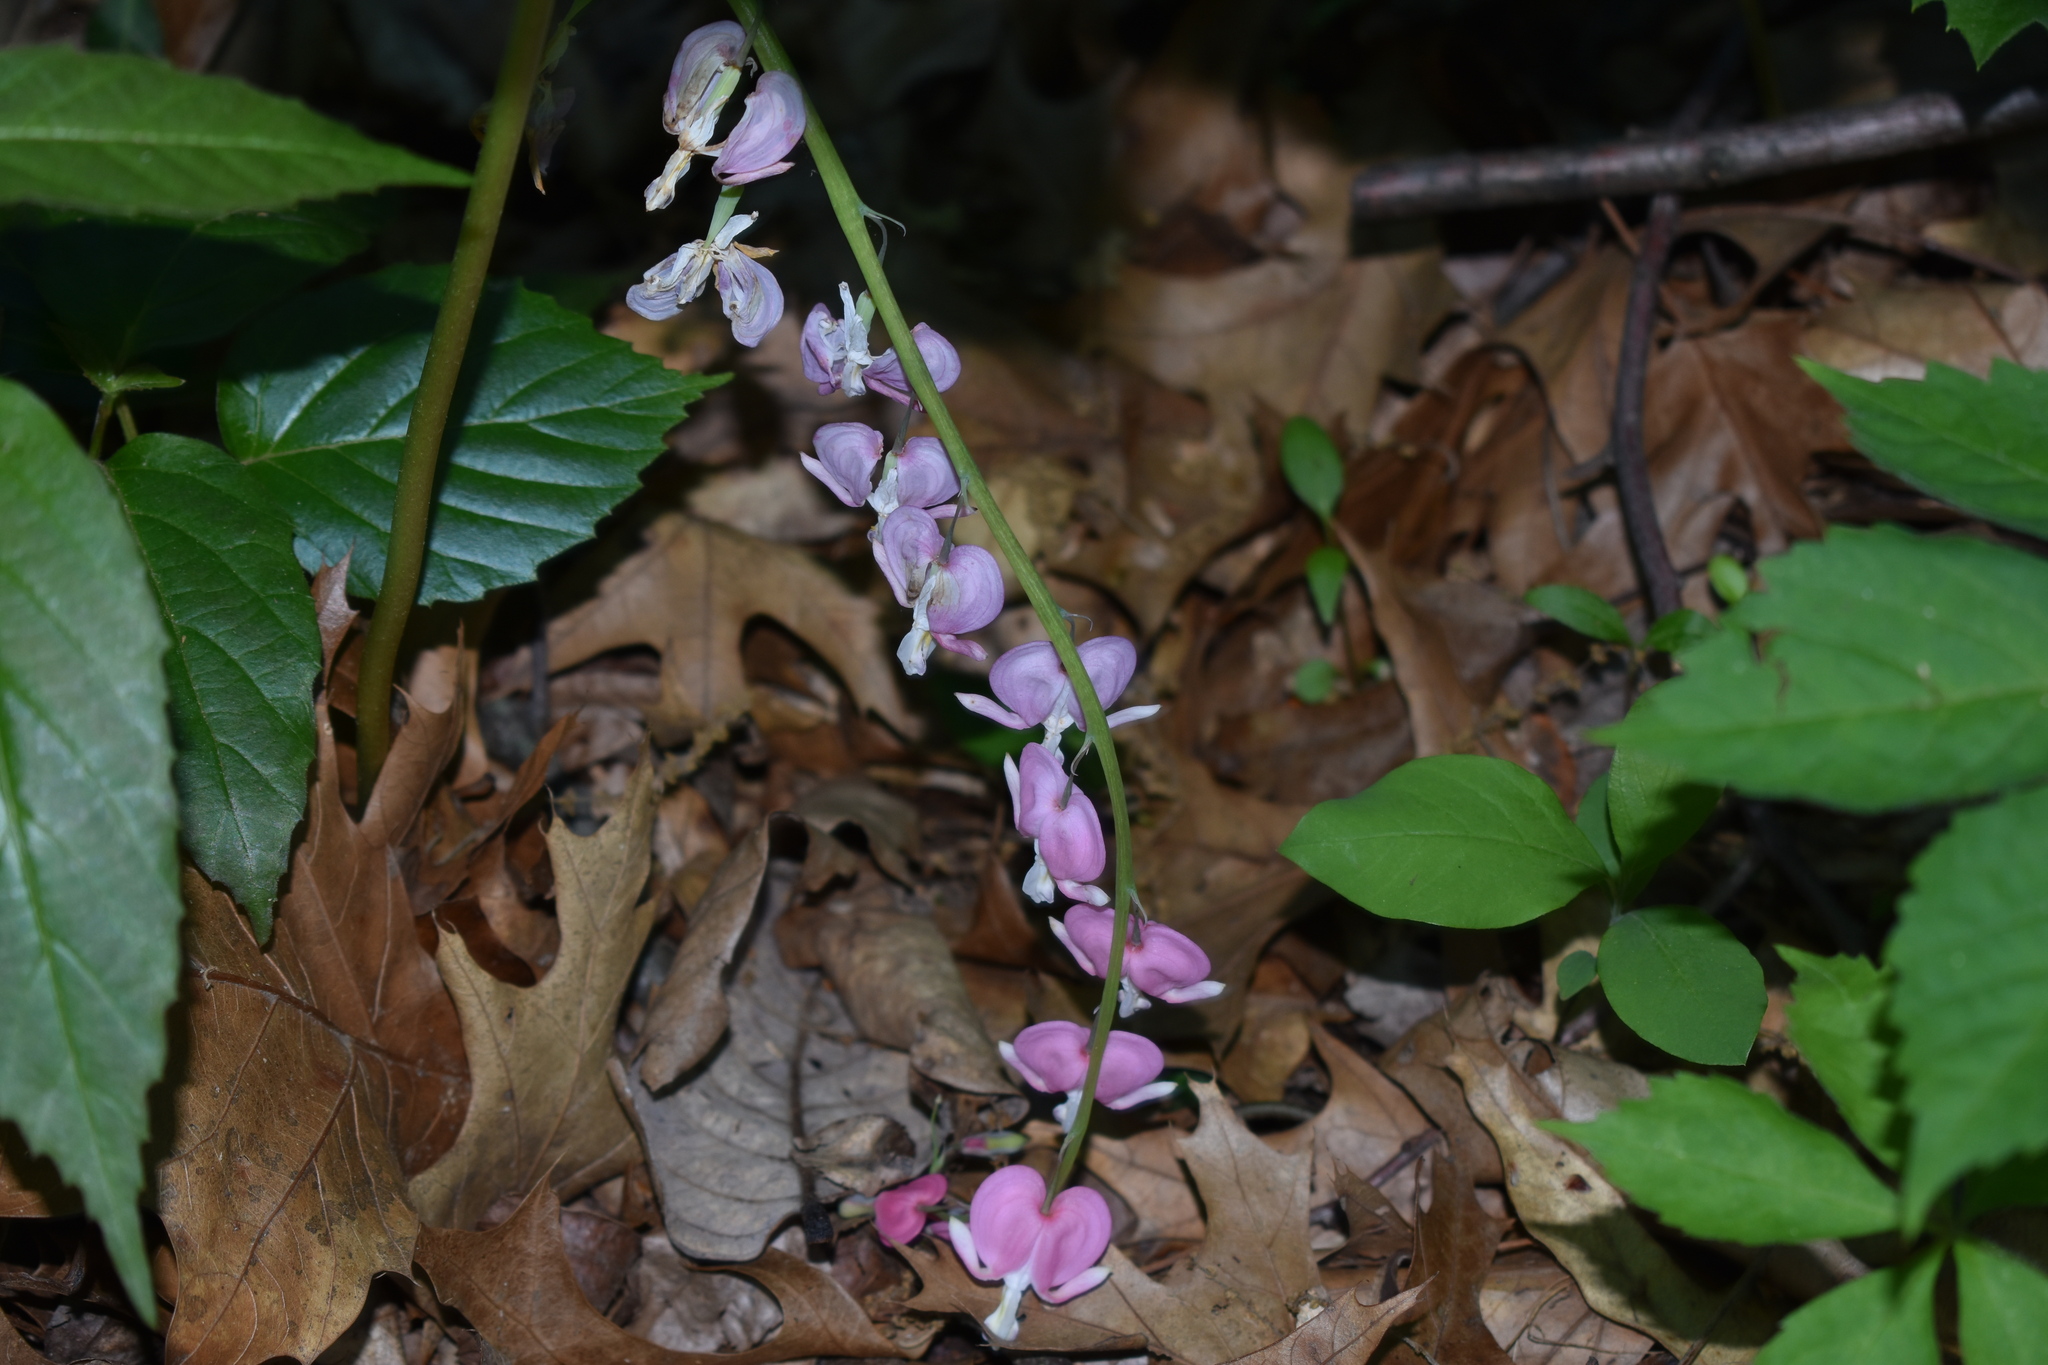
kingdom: Plantae
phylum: Tracheophyta
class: Magnoliopsida
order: Ranunculales
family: Papaveraceae
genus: Lamprocapnos
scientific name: Lamprocapnos spectabilis
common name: Asian bleeding-heart
